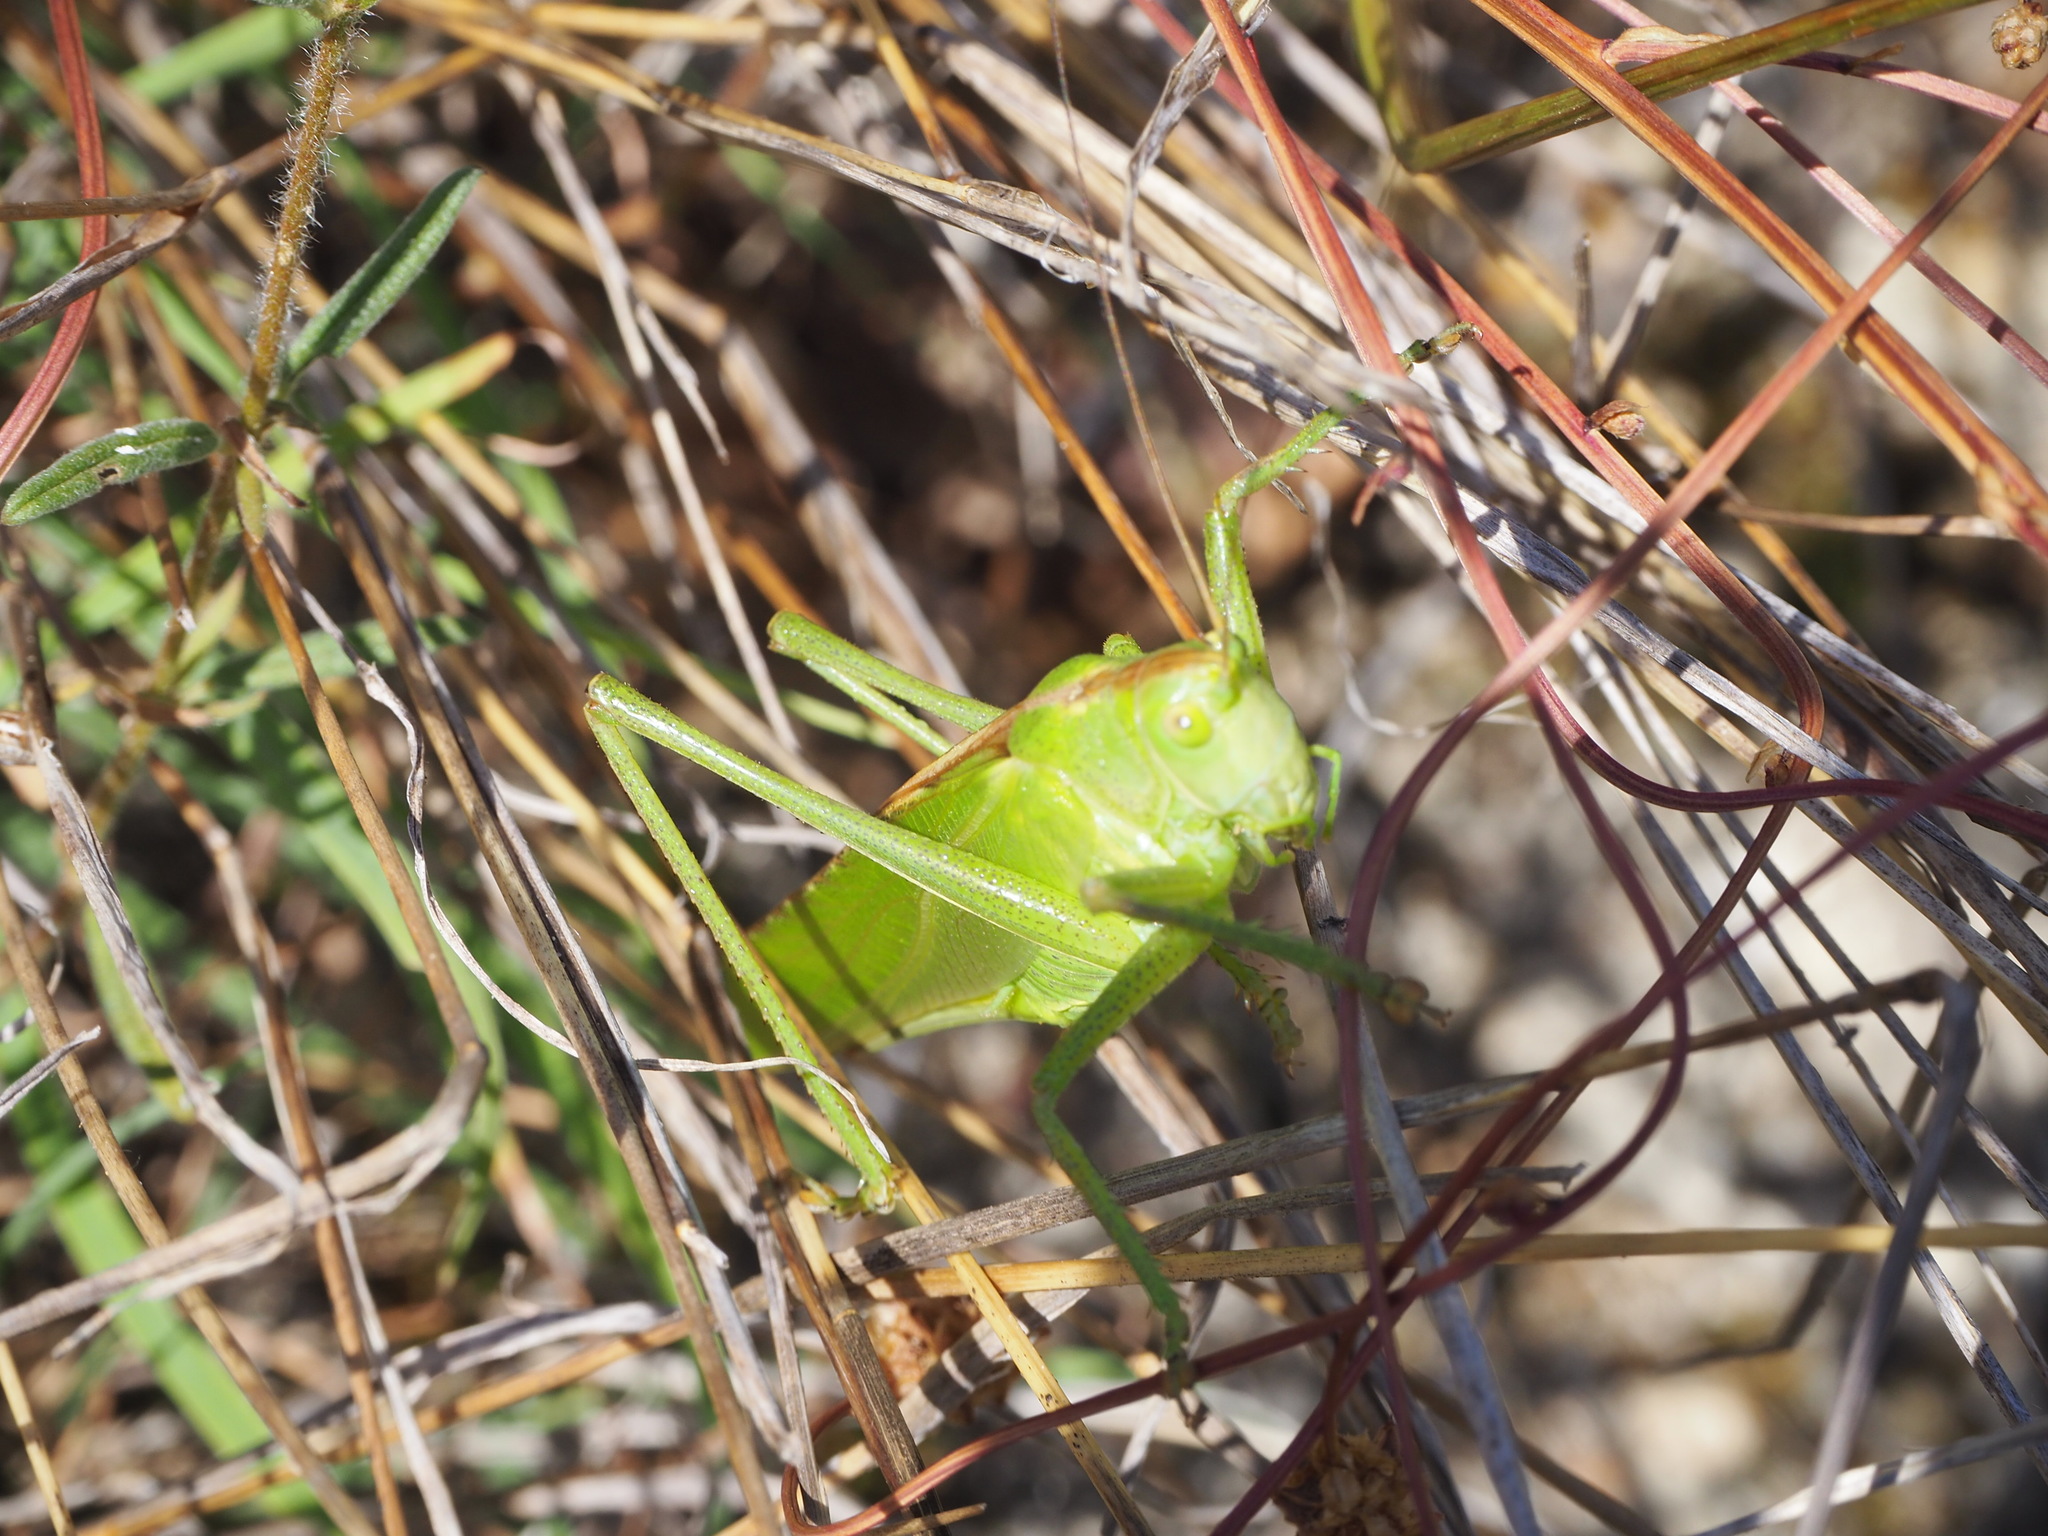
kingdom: Animalia
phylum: Arthropoda
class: Insecta
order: Orthoptera
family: Tettigoniidae
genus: Tettigonia
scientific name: Tettigonia viridissima
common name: Great green bush-cricket
